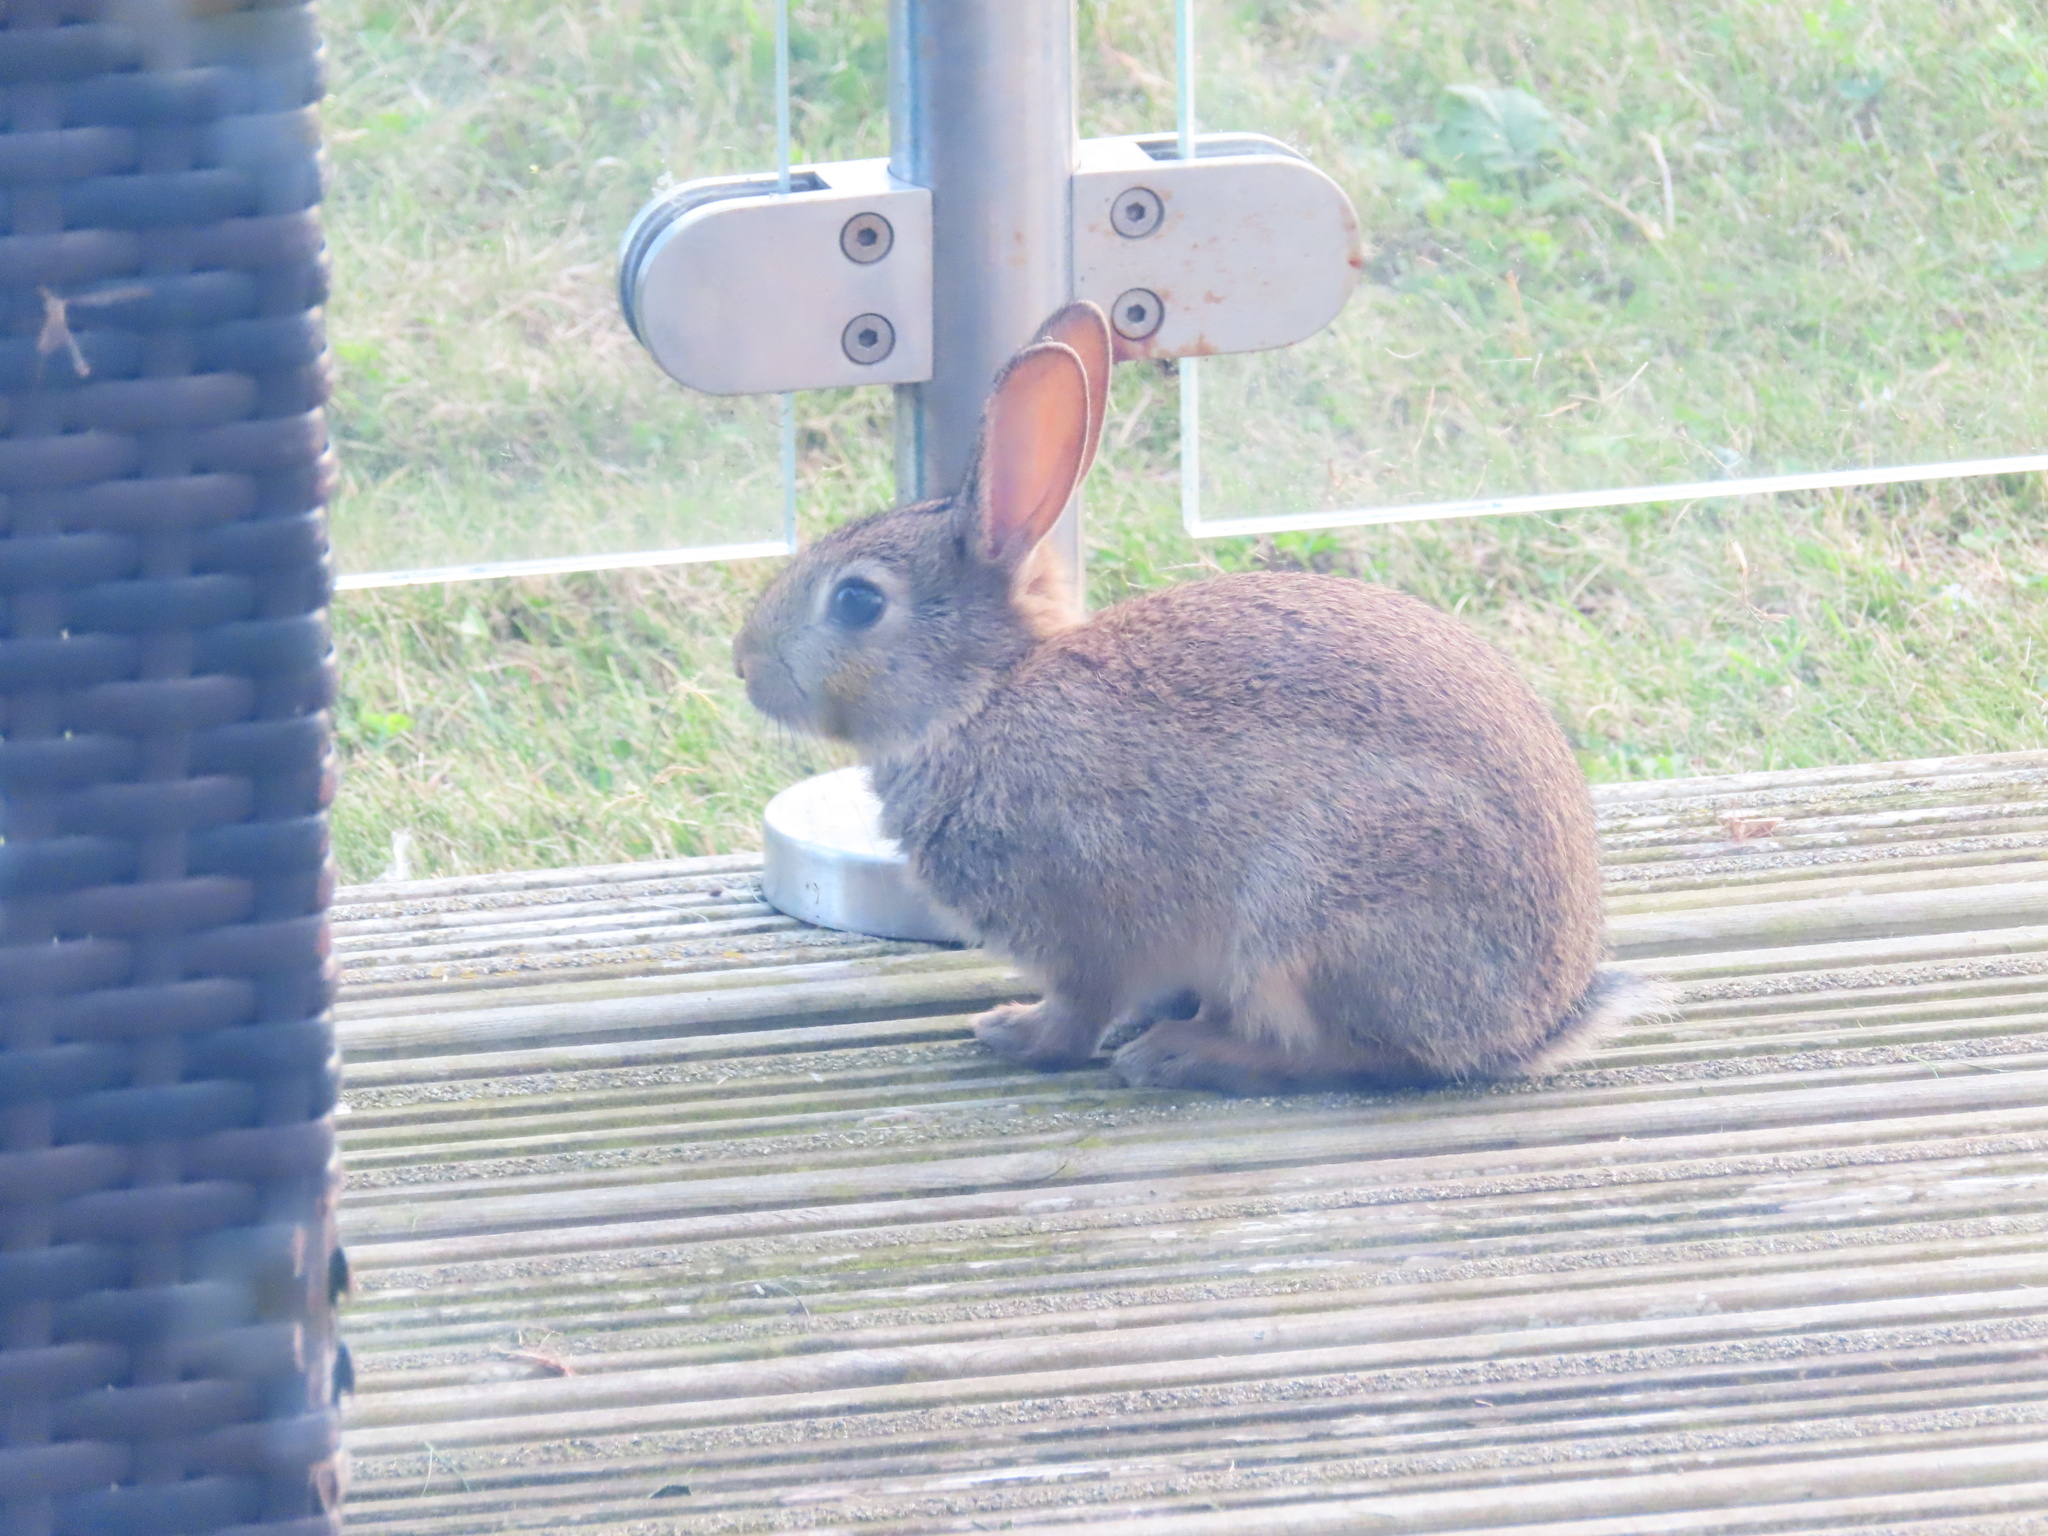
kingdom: Animalia
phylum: Chordata
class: Mammalia
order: Lagomorpha
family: Leporidae
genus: Oryctolagus
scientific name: Oryctolagus cuniculus
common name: European rabbit
